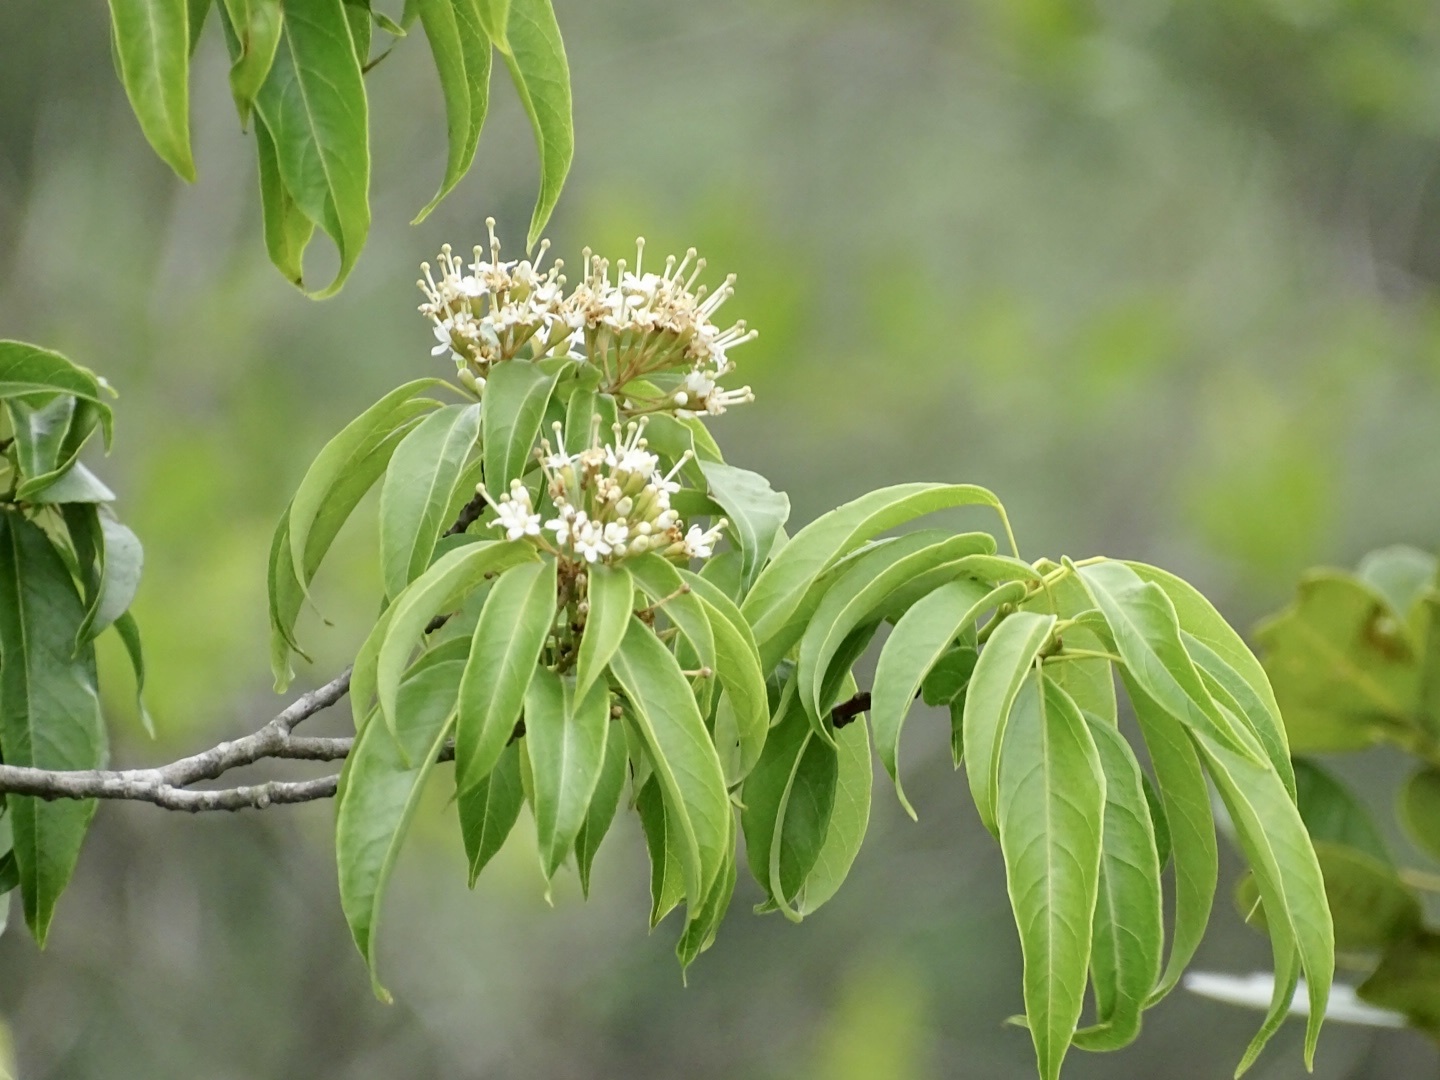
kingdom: Plantae
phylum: Tracheophyta
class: Magnoliopsida
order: Malvales
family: Malvaceae
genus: Reevesia
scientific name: Reevesia thyrsoidea
